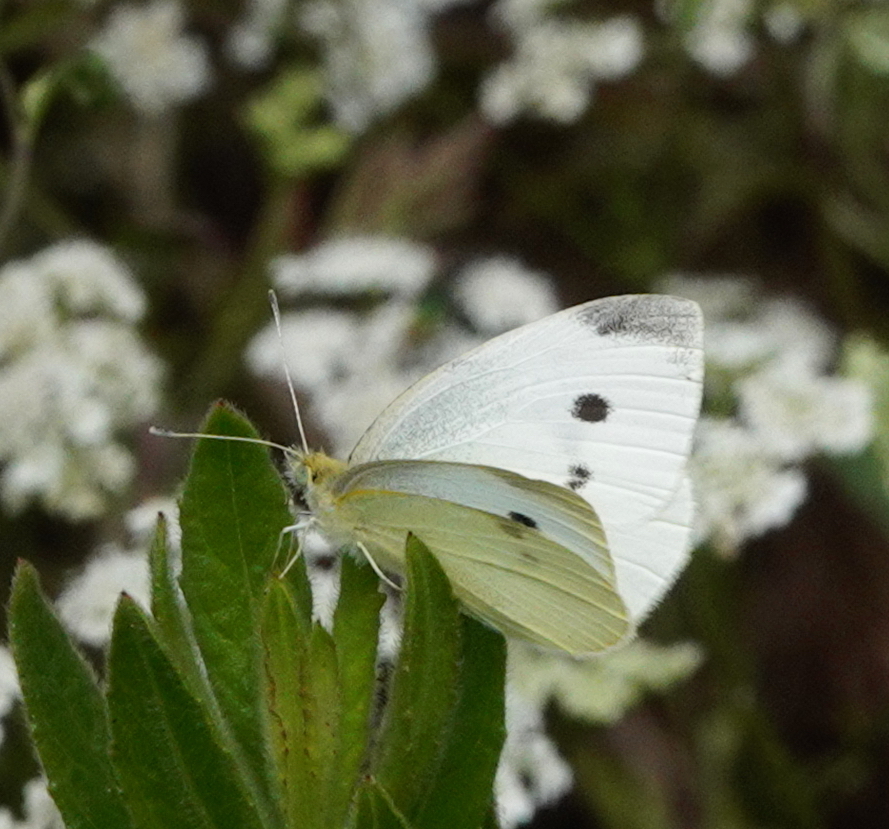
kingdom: Animalia
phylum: Arthropoda
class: Insecta
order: Lepidoptera
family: Pieridae
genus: Pieris
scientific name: Pieris rapae
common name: Small white
